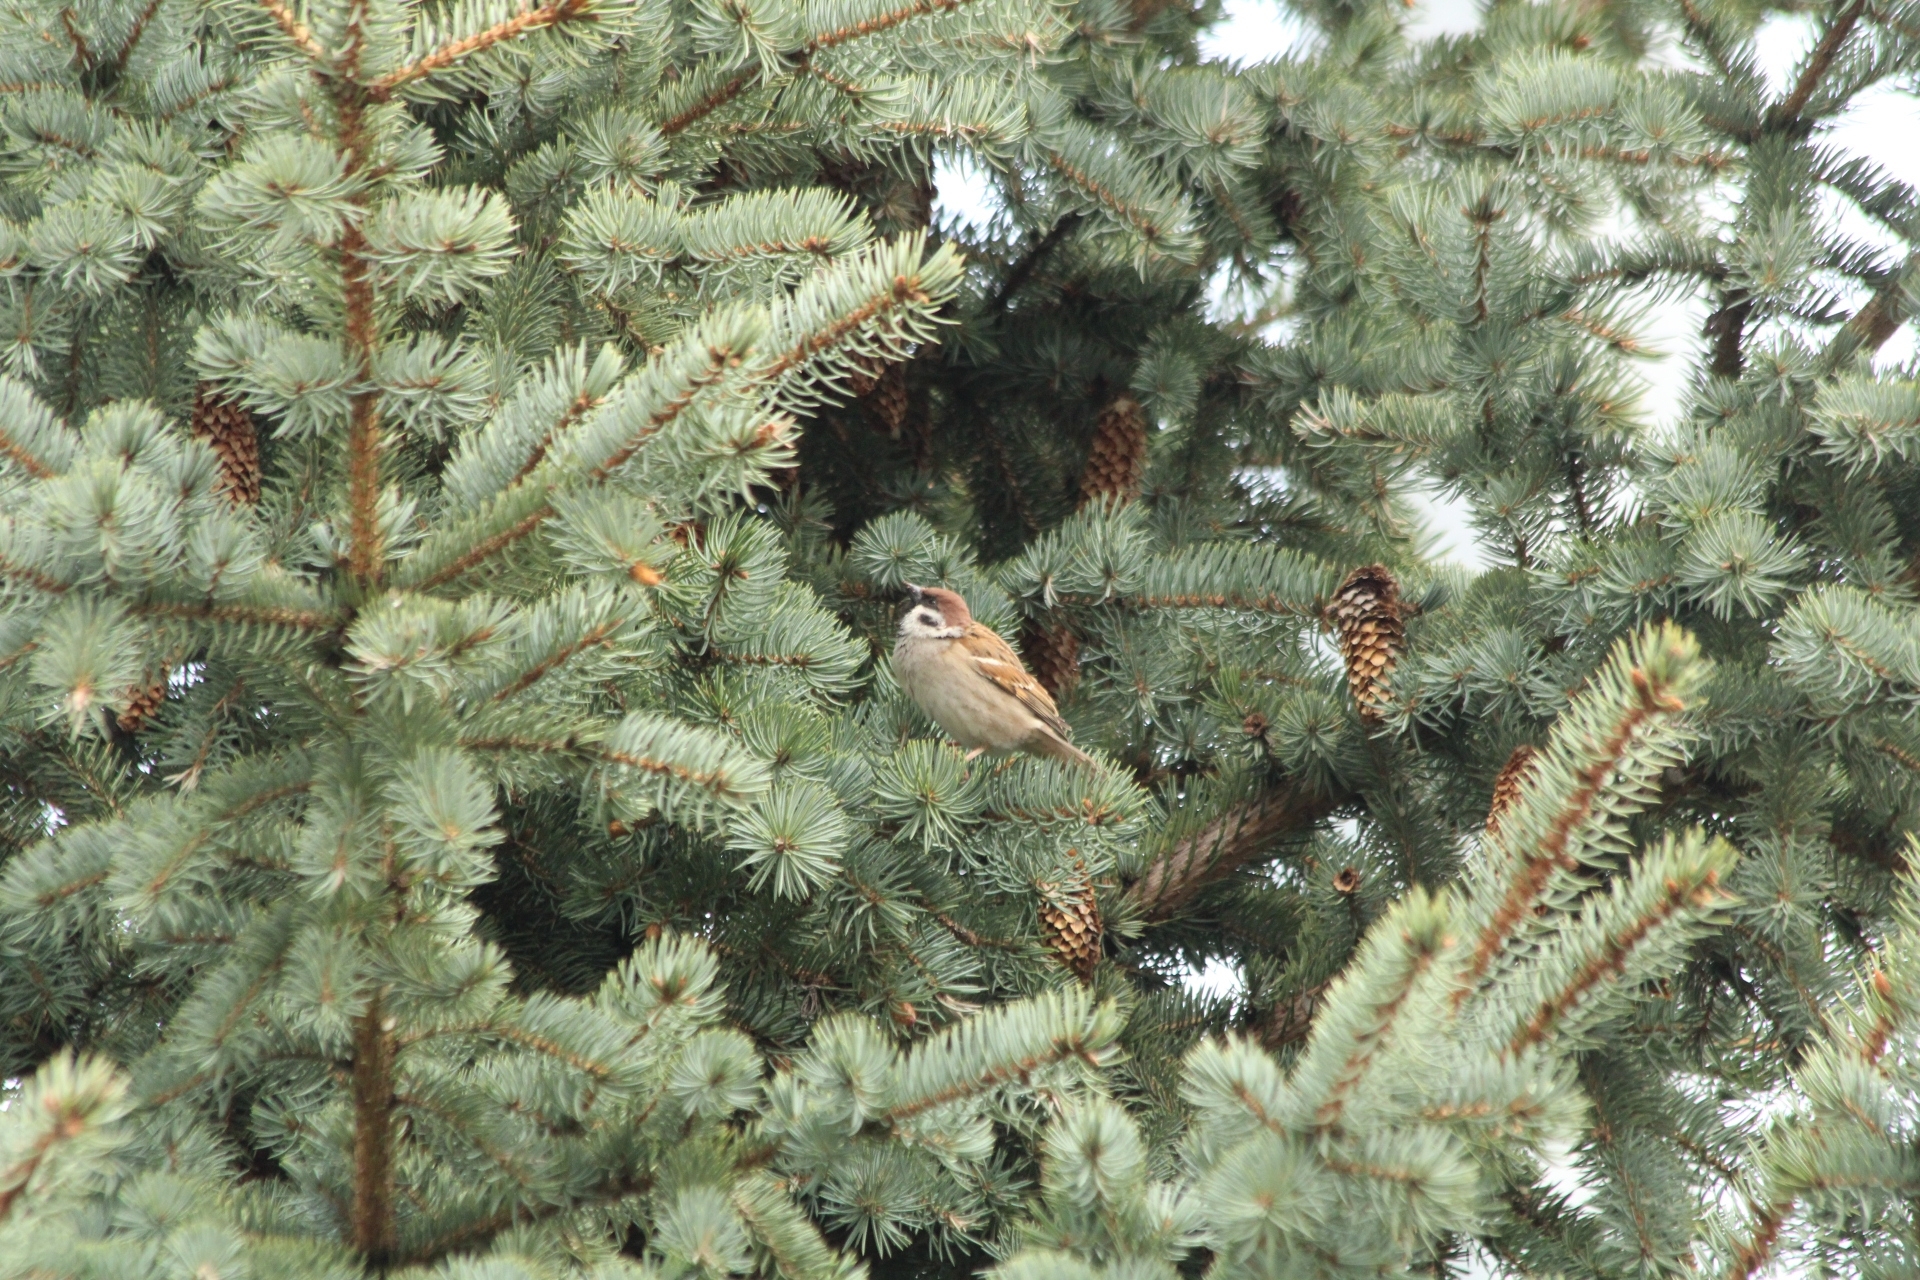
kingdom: Animalia
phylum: Chordata
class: Aves
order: Passeriformes
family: Passeridae
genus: Passer
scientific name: Passer montanus
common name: Eurasian tree sparrow
